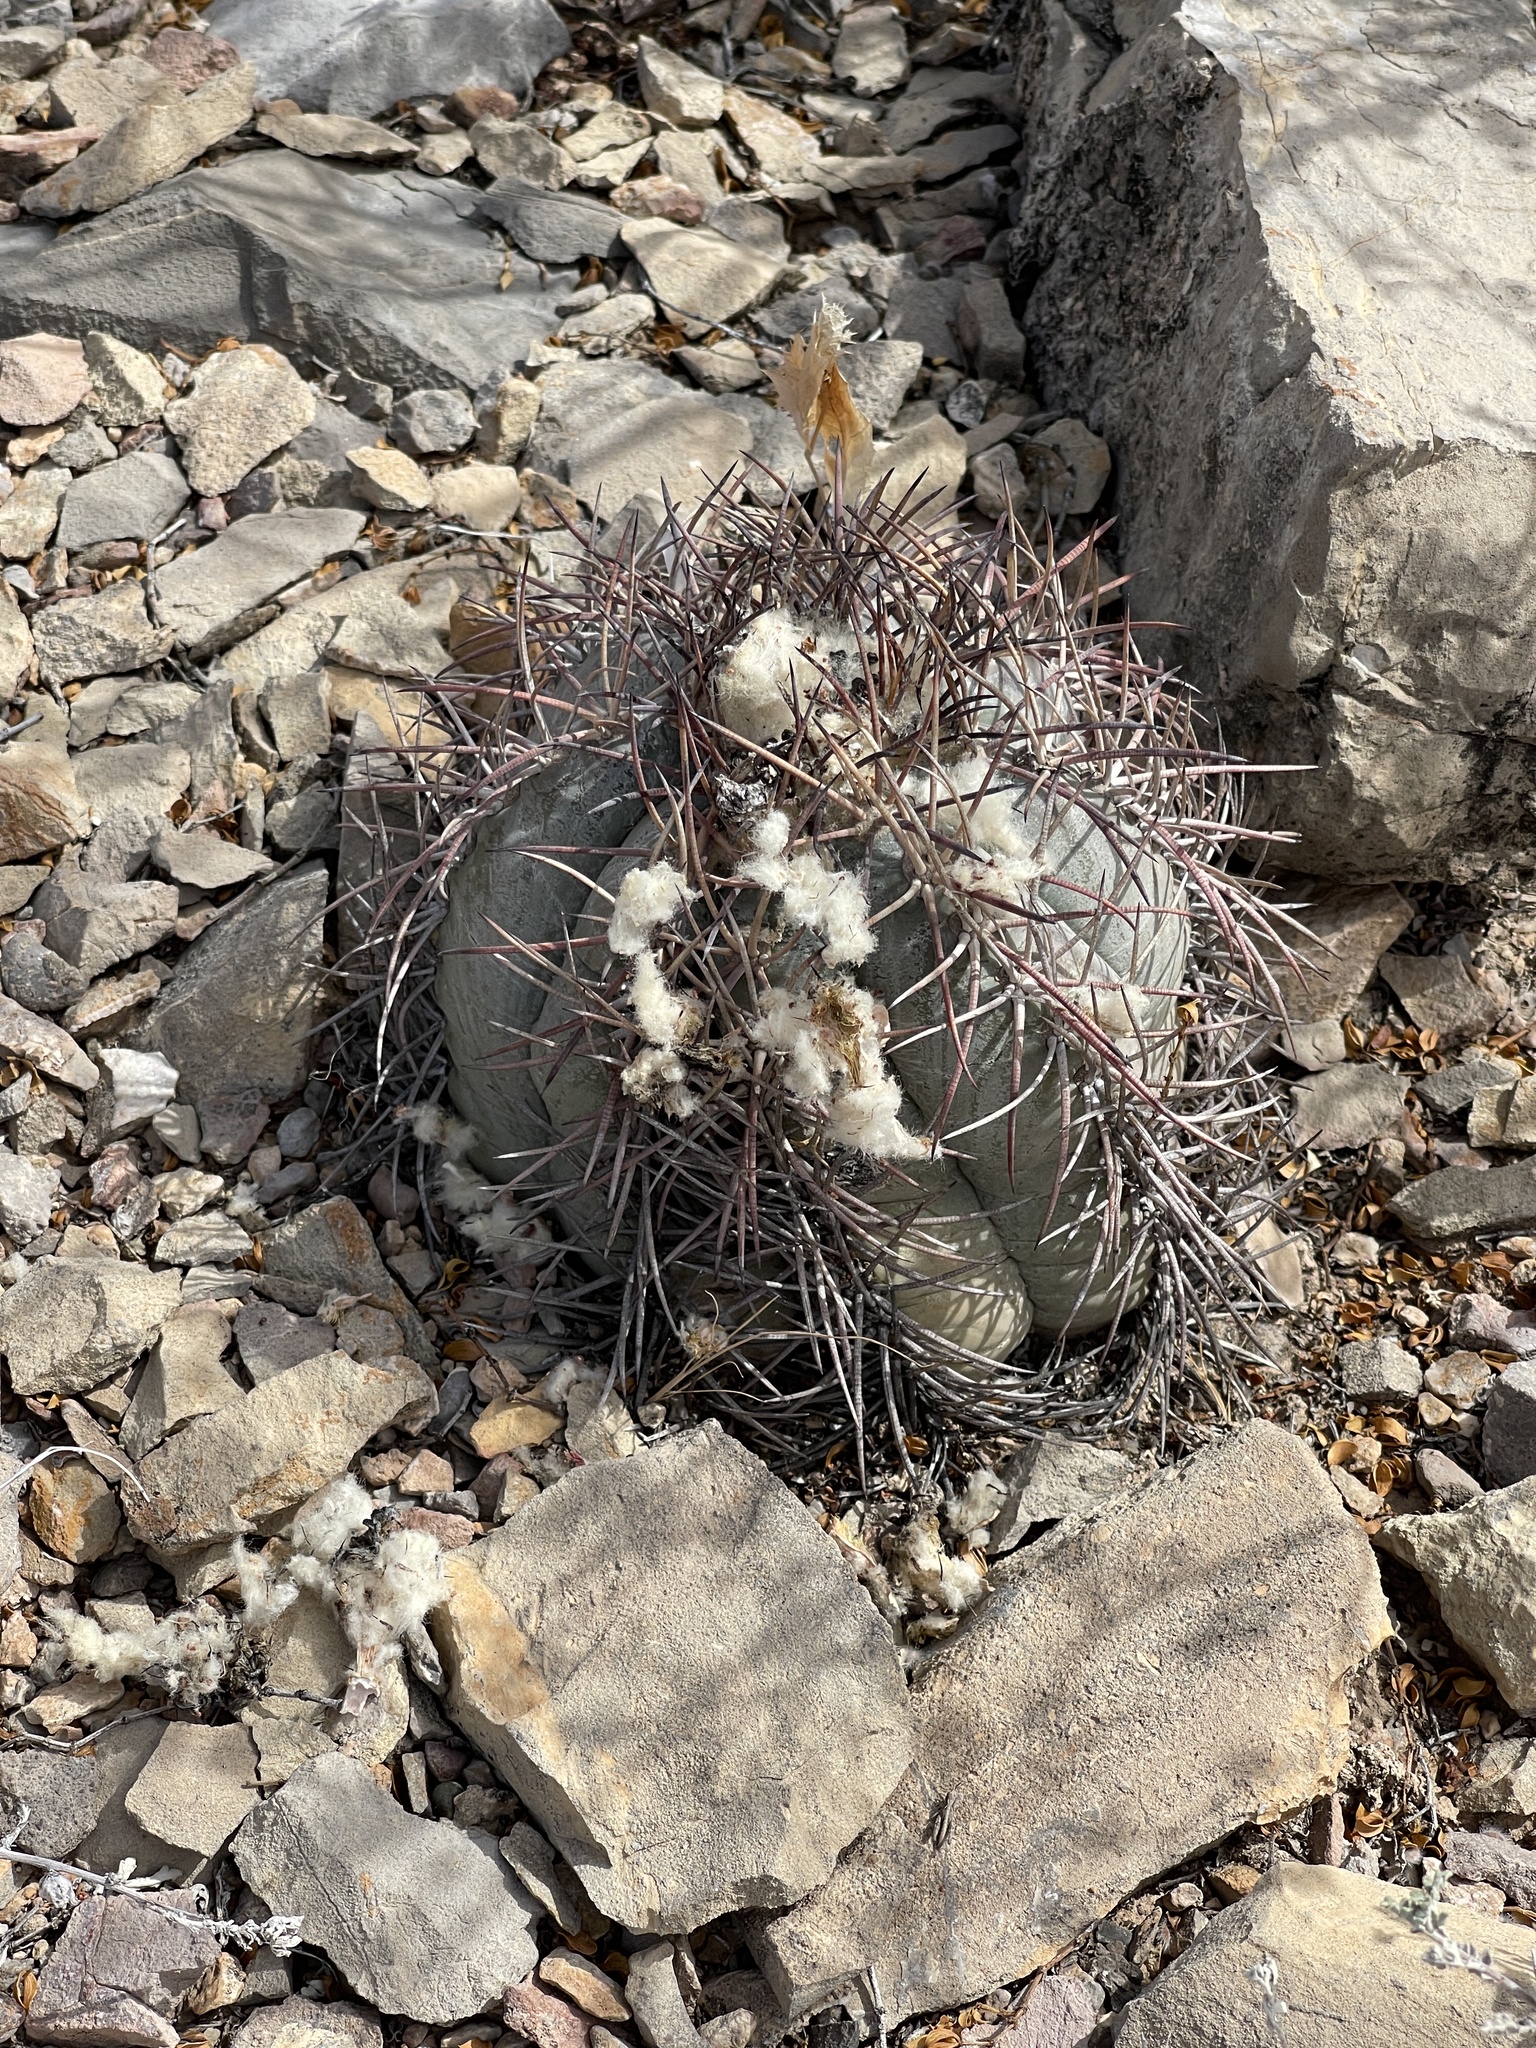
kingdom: Plantae
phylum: Tracheophyta
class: Magnoliopsida
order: Caryophyllales
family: Cactaceae
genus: Echinocactus
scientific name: Echinocactus horizonthalonius
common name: Devilshead
